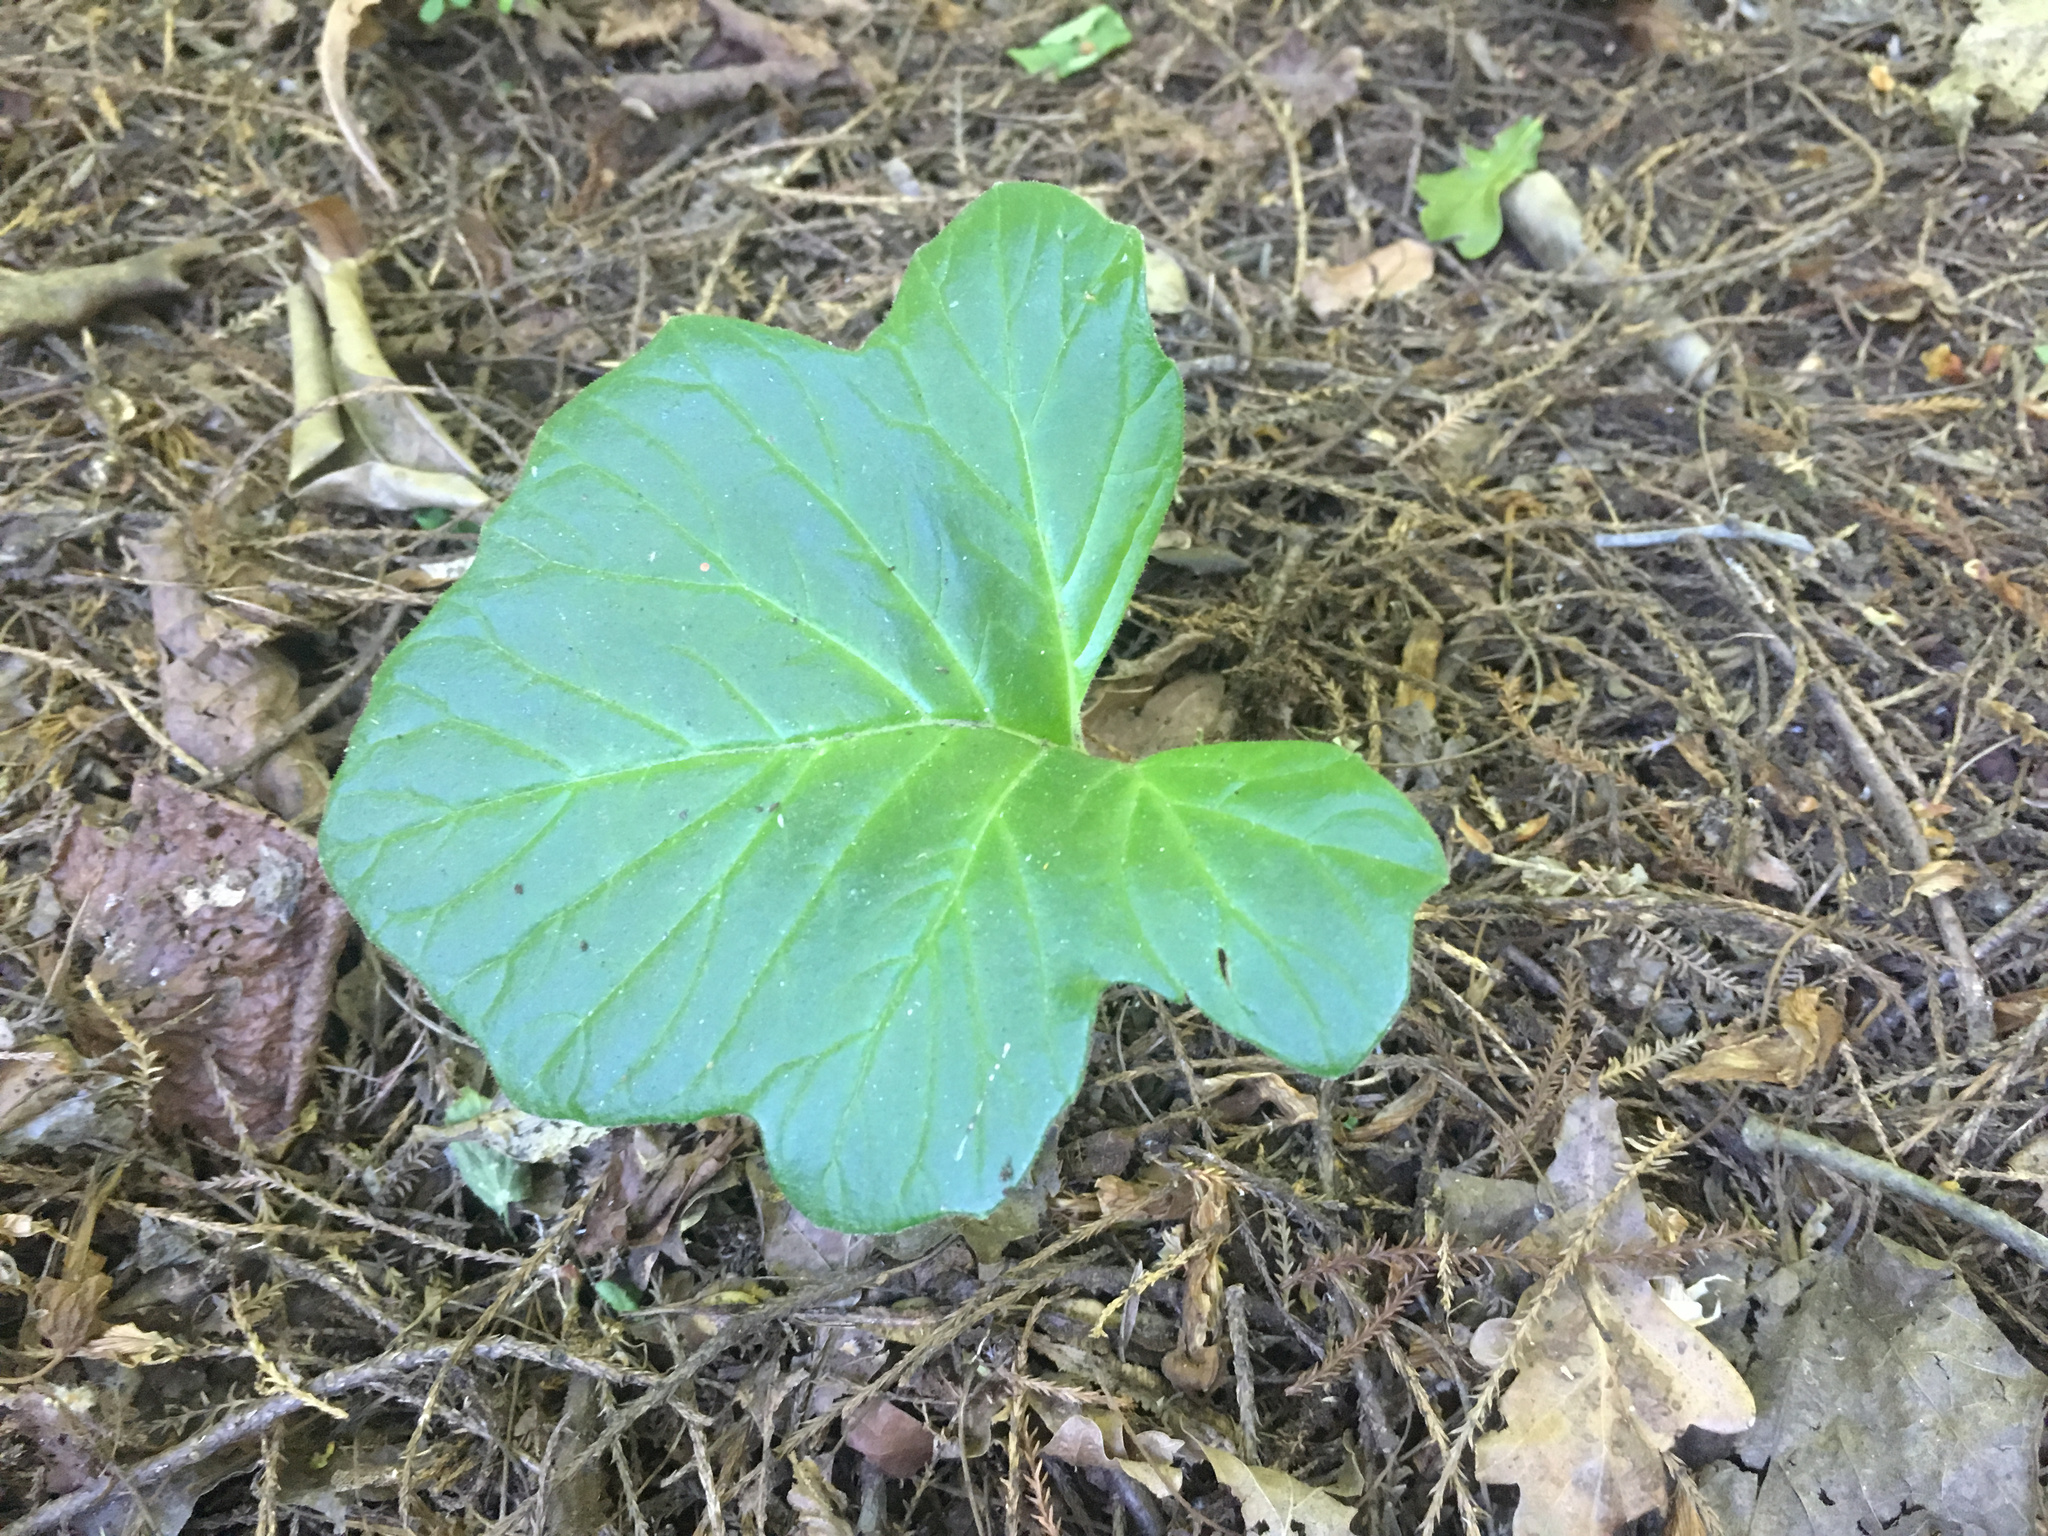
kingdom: Plantae
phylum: Tracheophyta
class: Magnoliopsida
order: Lamiales
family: Acanthaceae
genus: Acanthus
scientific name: Acanthus mollis
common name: Bear's-breech
